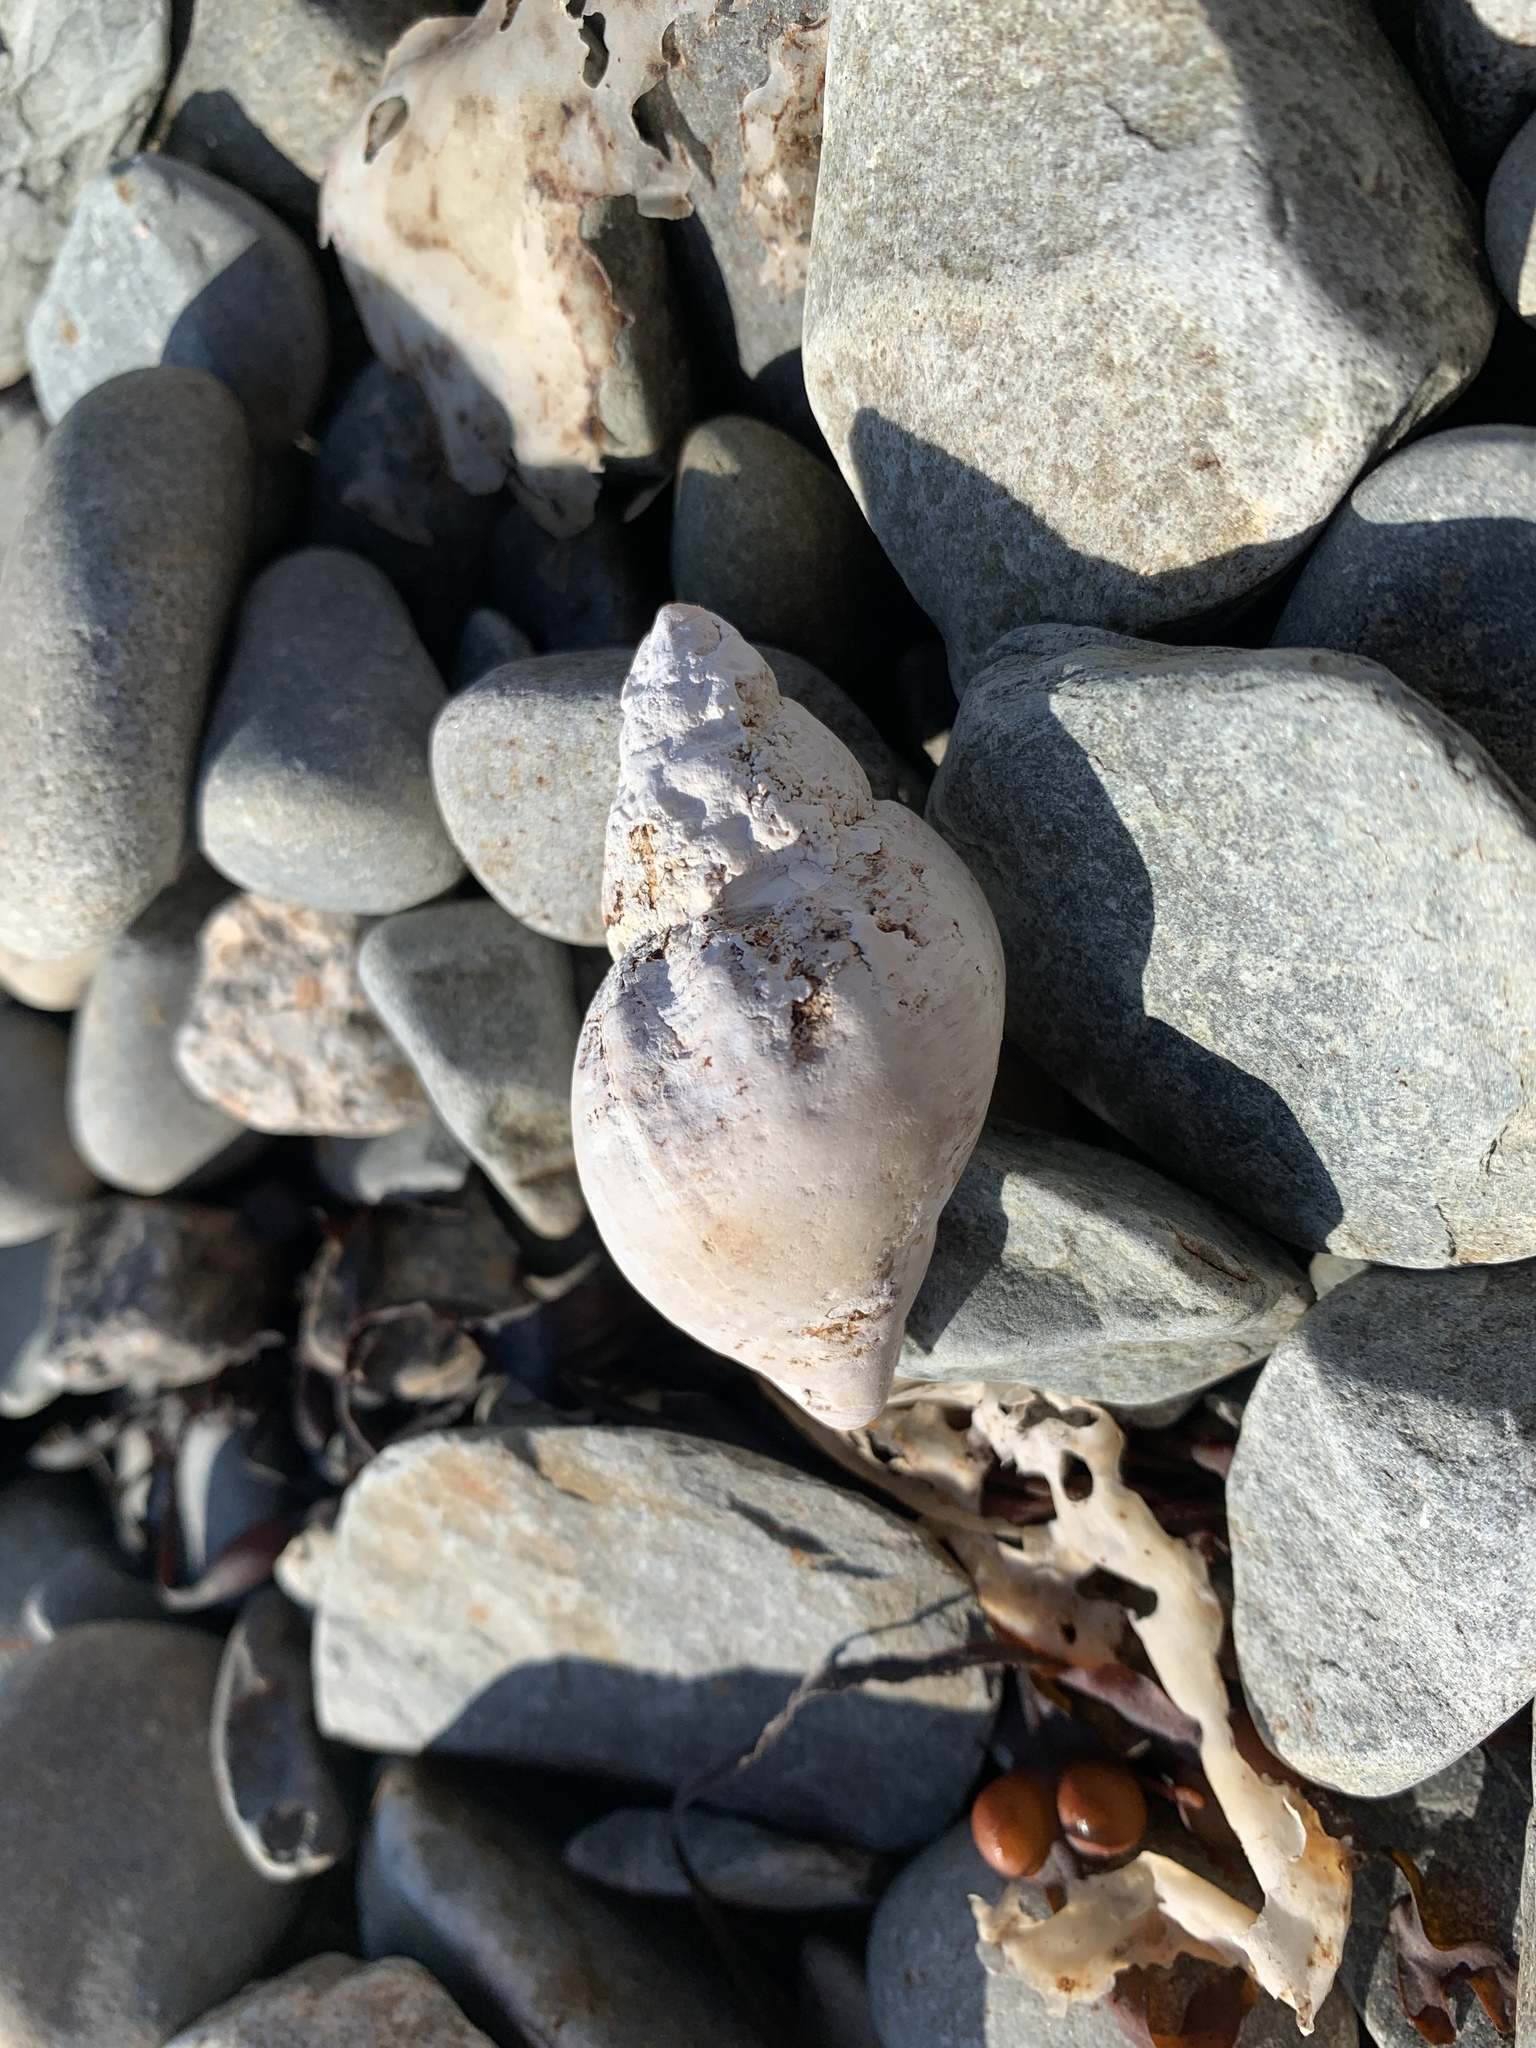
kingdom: Animalia
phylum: Mollusca
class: Gastropoda
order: Neogastropoda
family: Buccinidae
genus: Buccinum
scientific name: Buccinum undatum
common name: Common whelk
